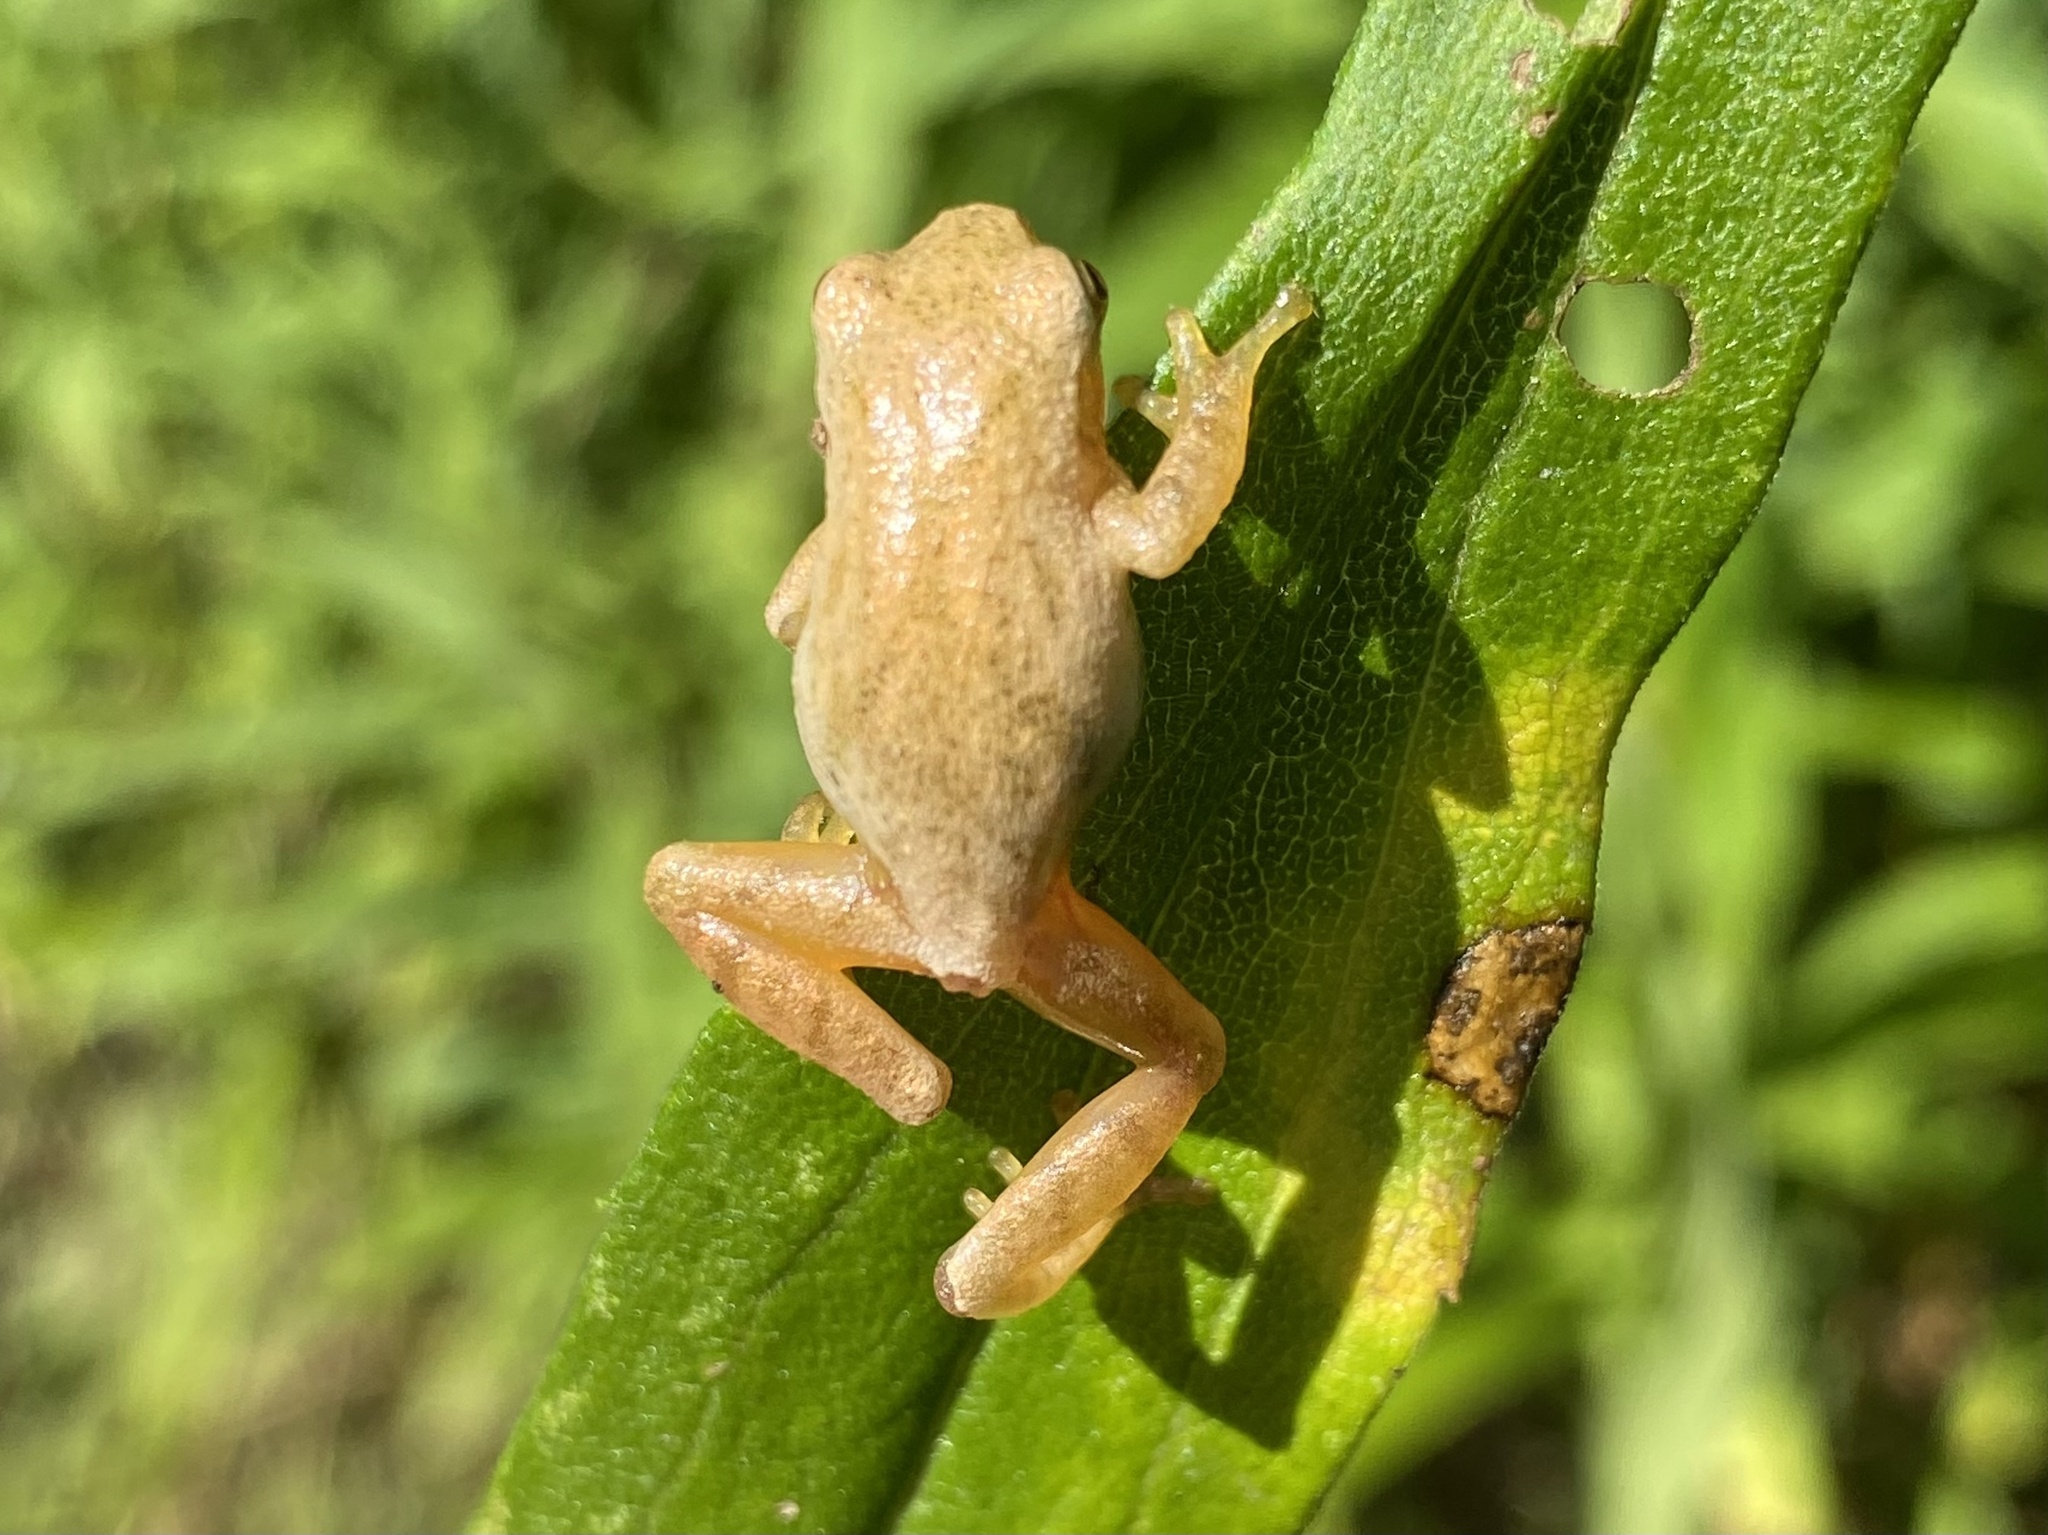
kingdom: Animalia
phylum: Chordata
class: Amphibia
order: Anura
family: Hylidae
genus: Pseudacris
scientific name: Pseudacris crucifer
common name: Spring peeper
